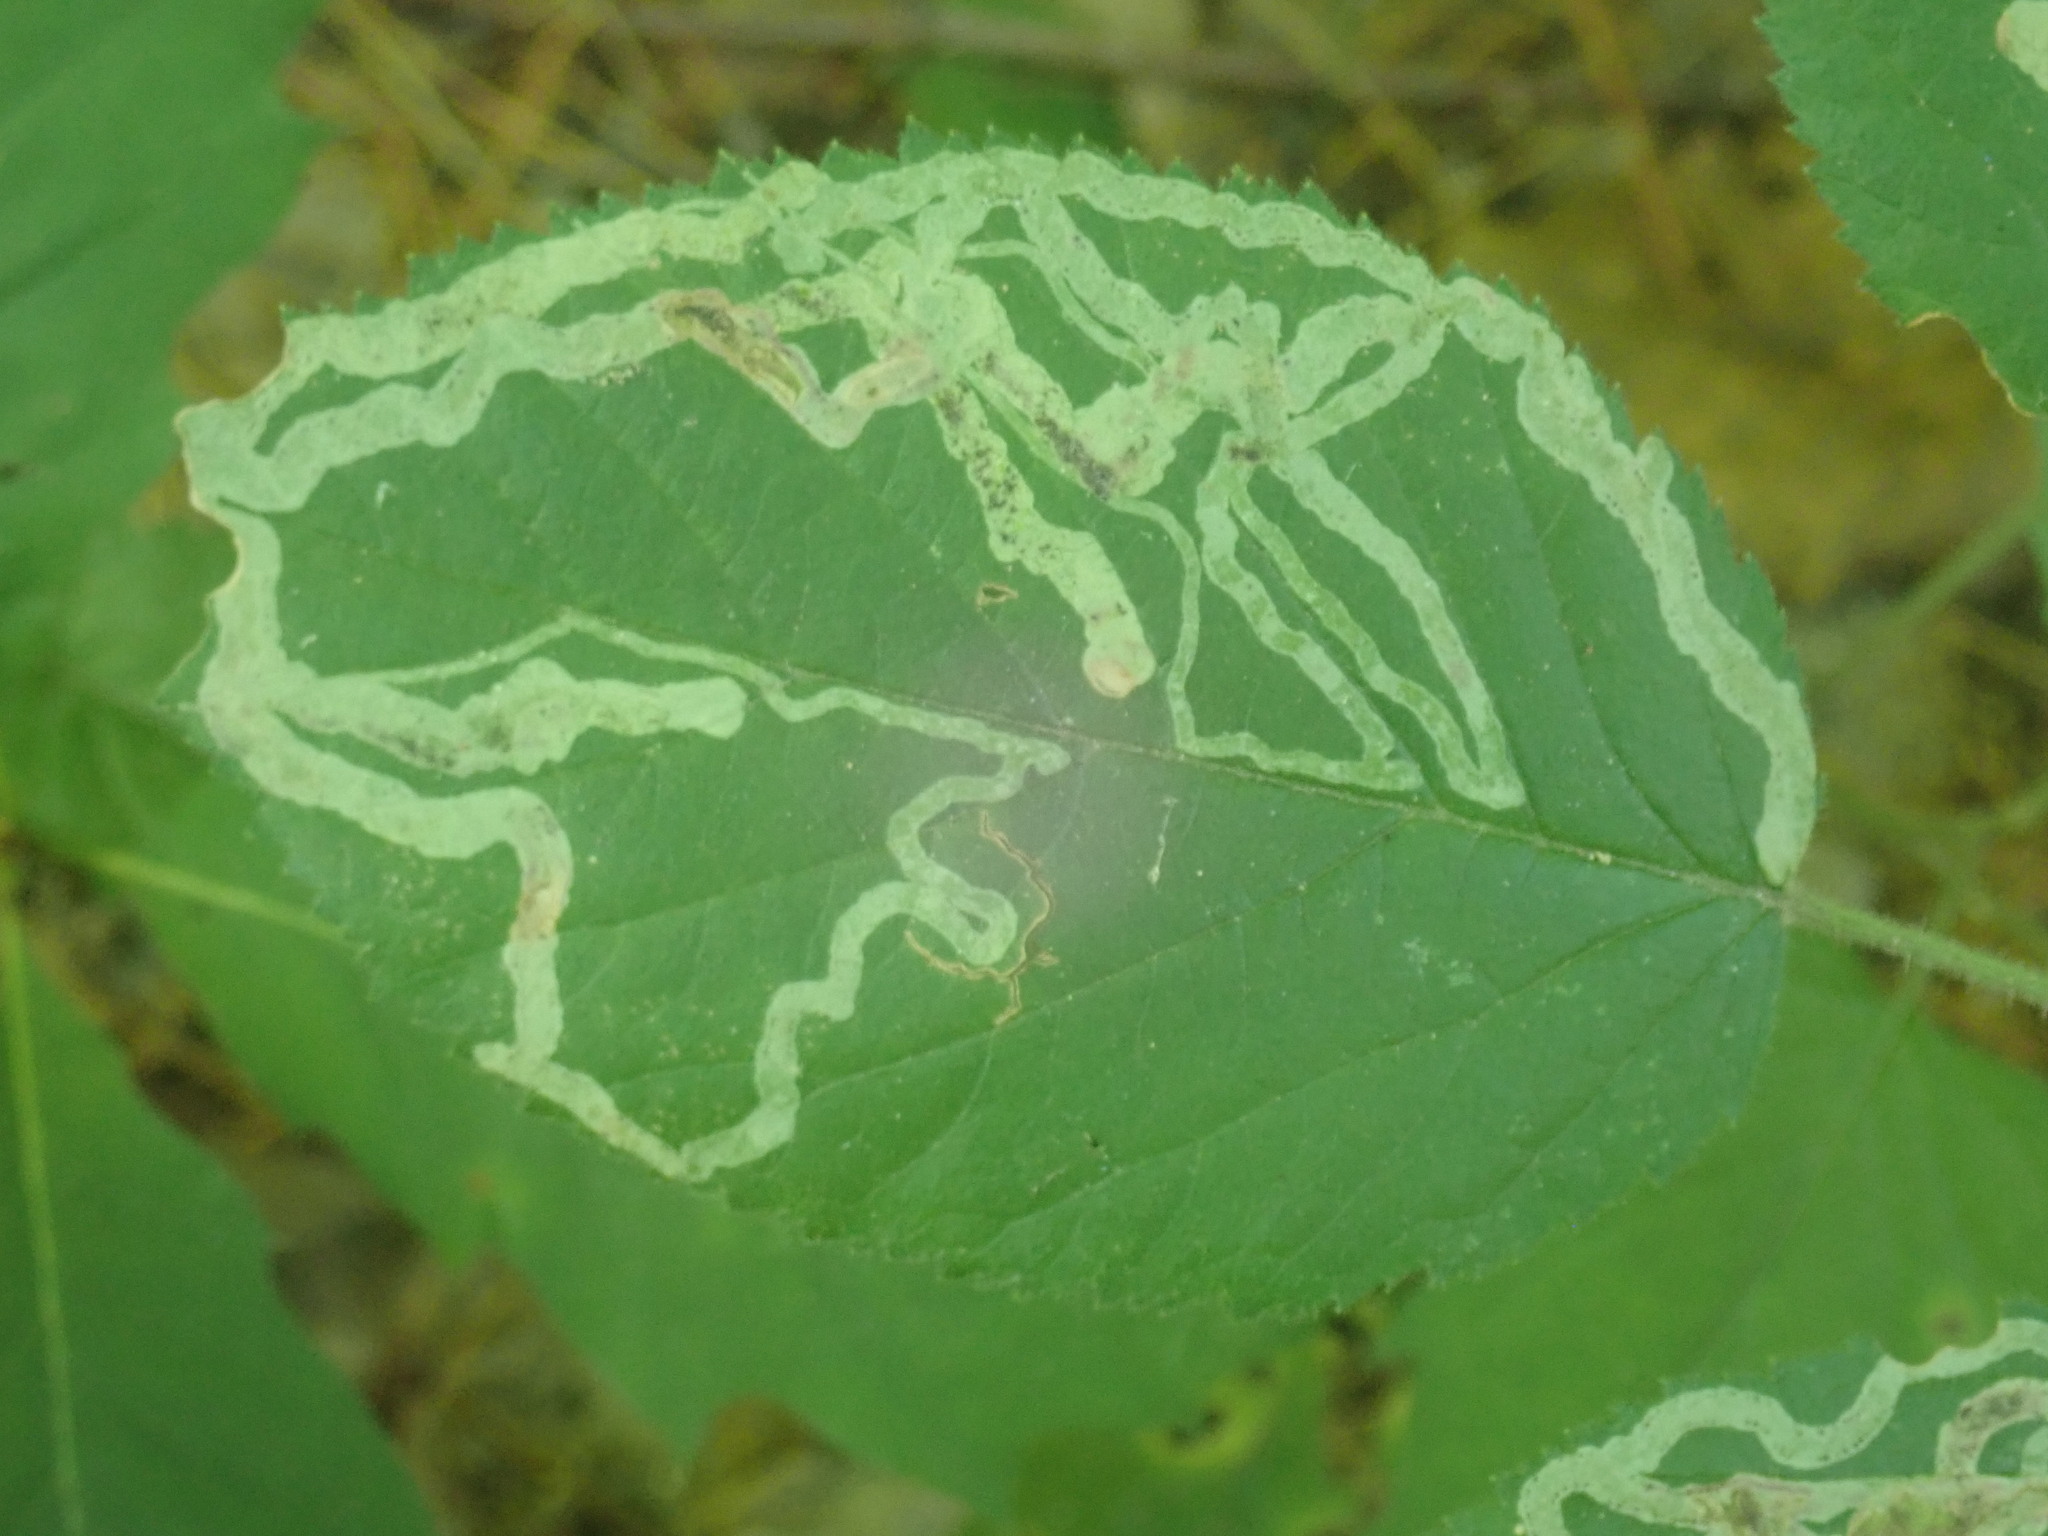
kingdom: Animalia
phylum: Arthropoda
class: Insecta
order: Diptera
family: Agromyzidae
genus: Agromyza
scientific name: Agromyza vockerothi
